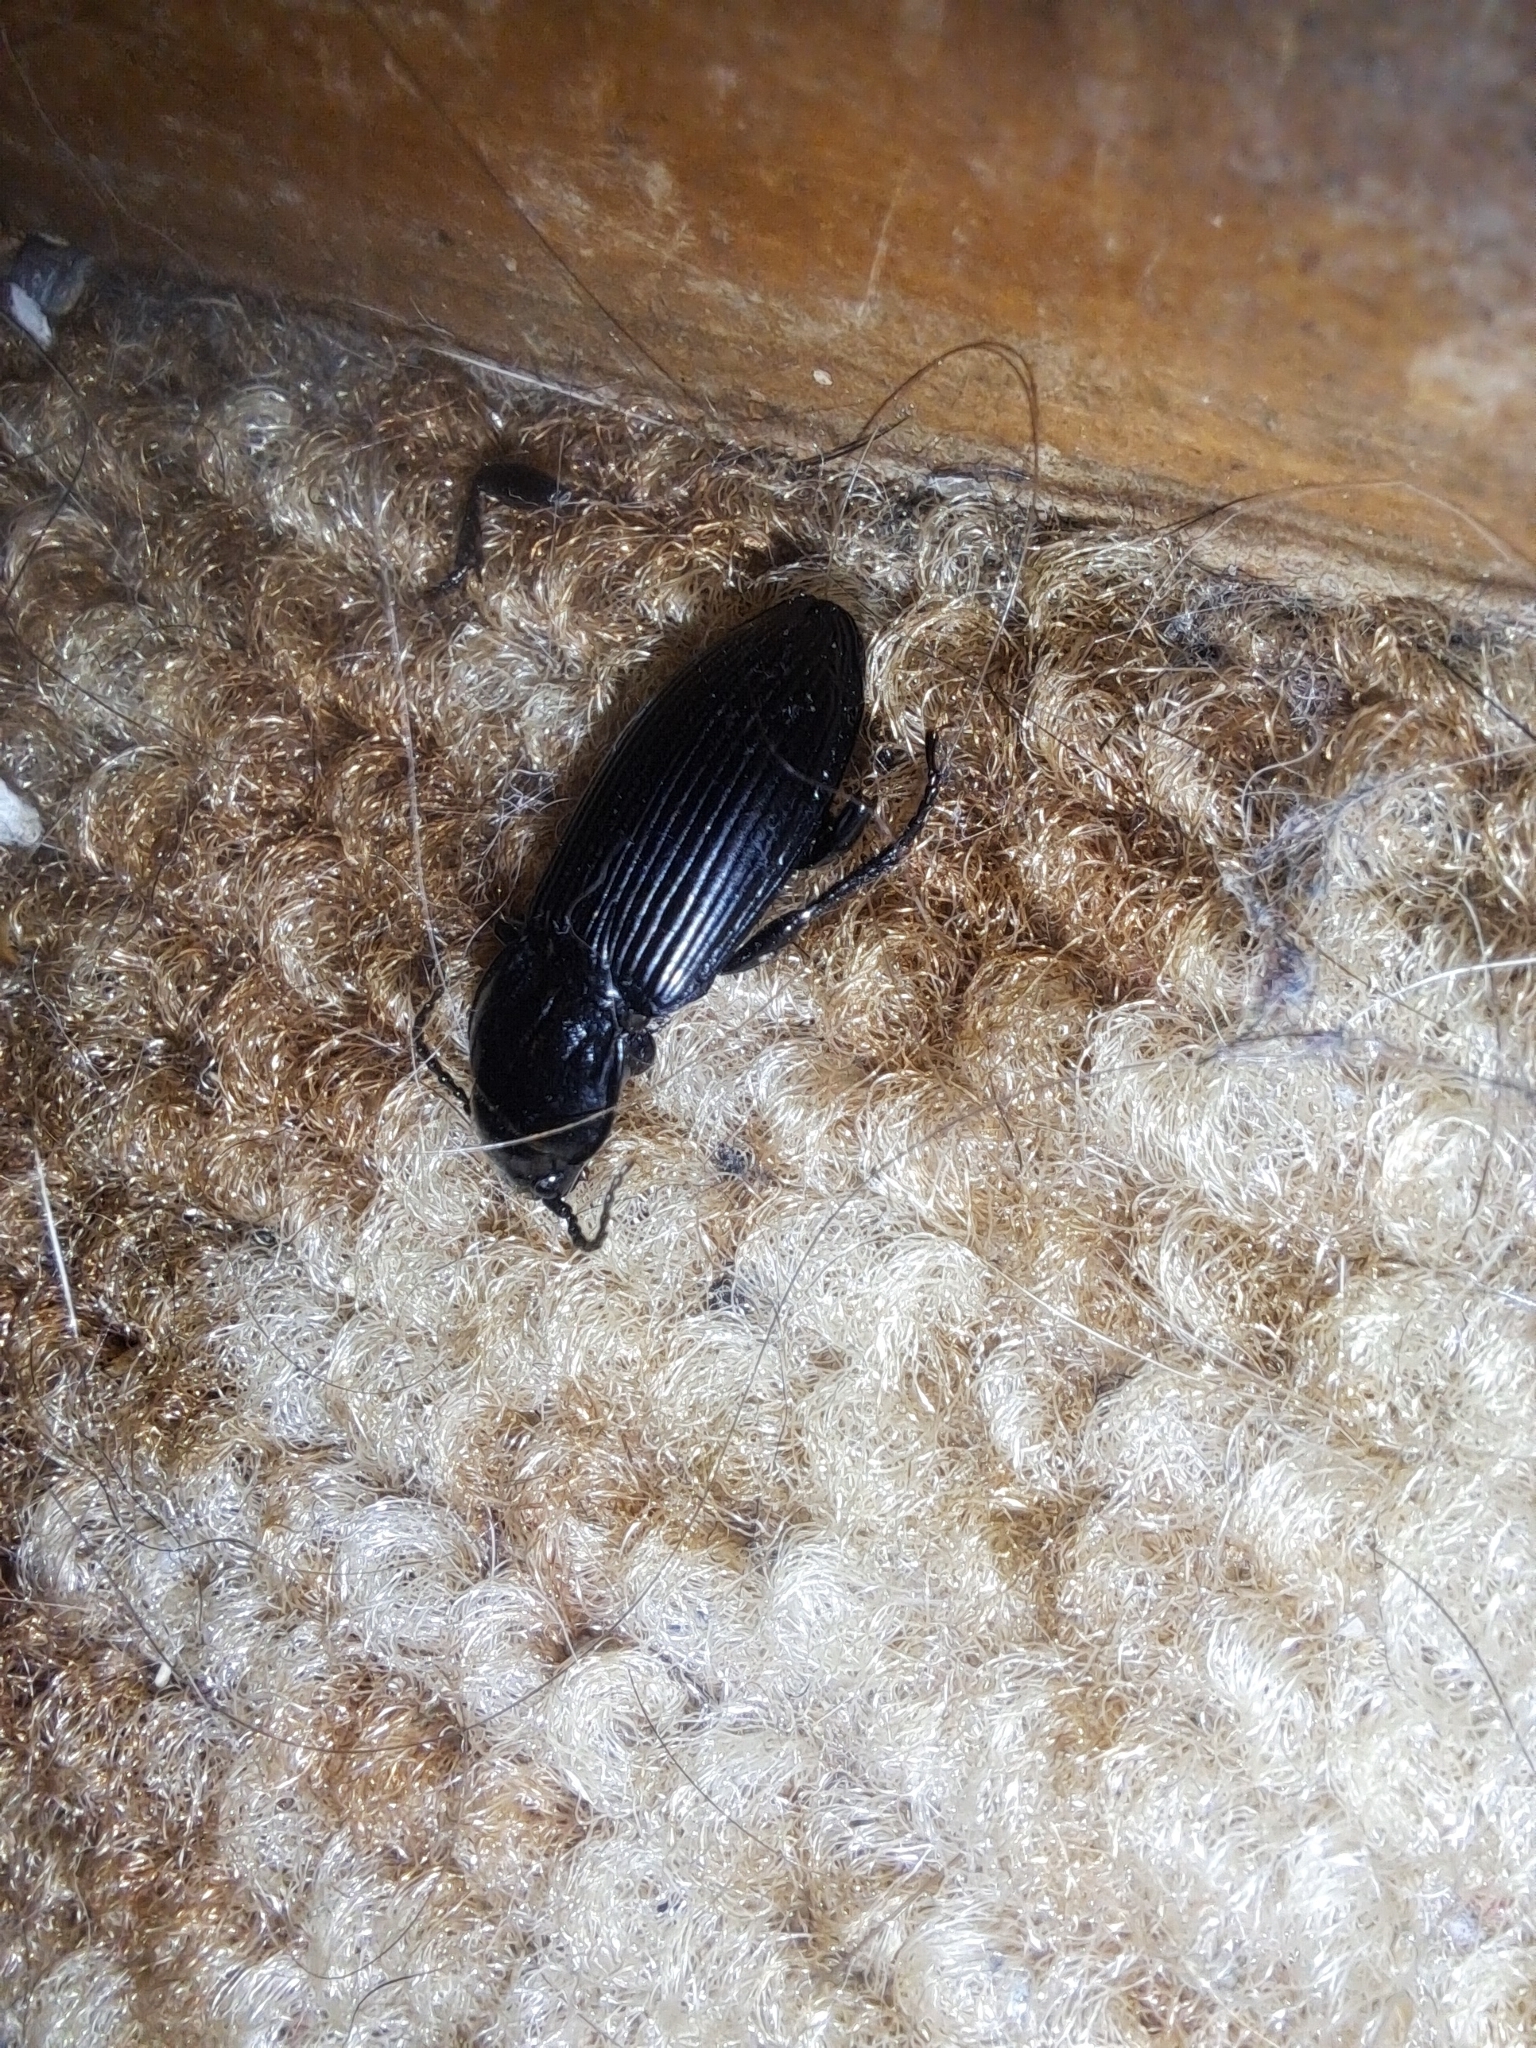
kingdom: Animalia
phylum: Arthropoda
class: Insecta
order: Coleoptera
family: Carabidae
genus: Pterostichus
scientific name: Pterostichus melanarius
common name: European dark harp ground beetle
